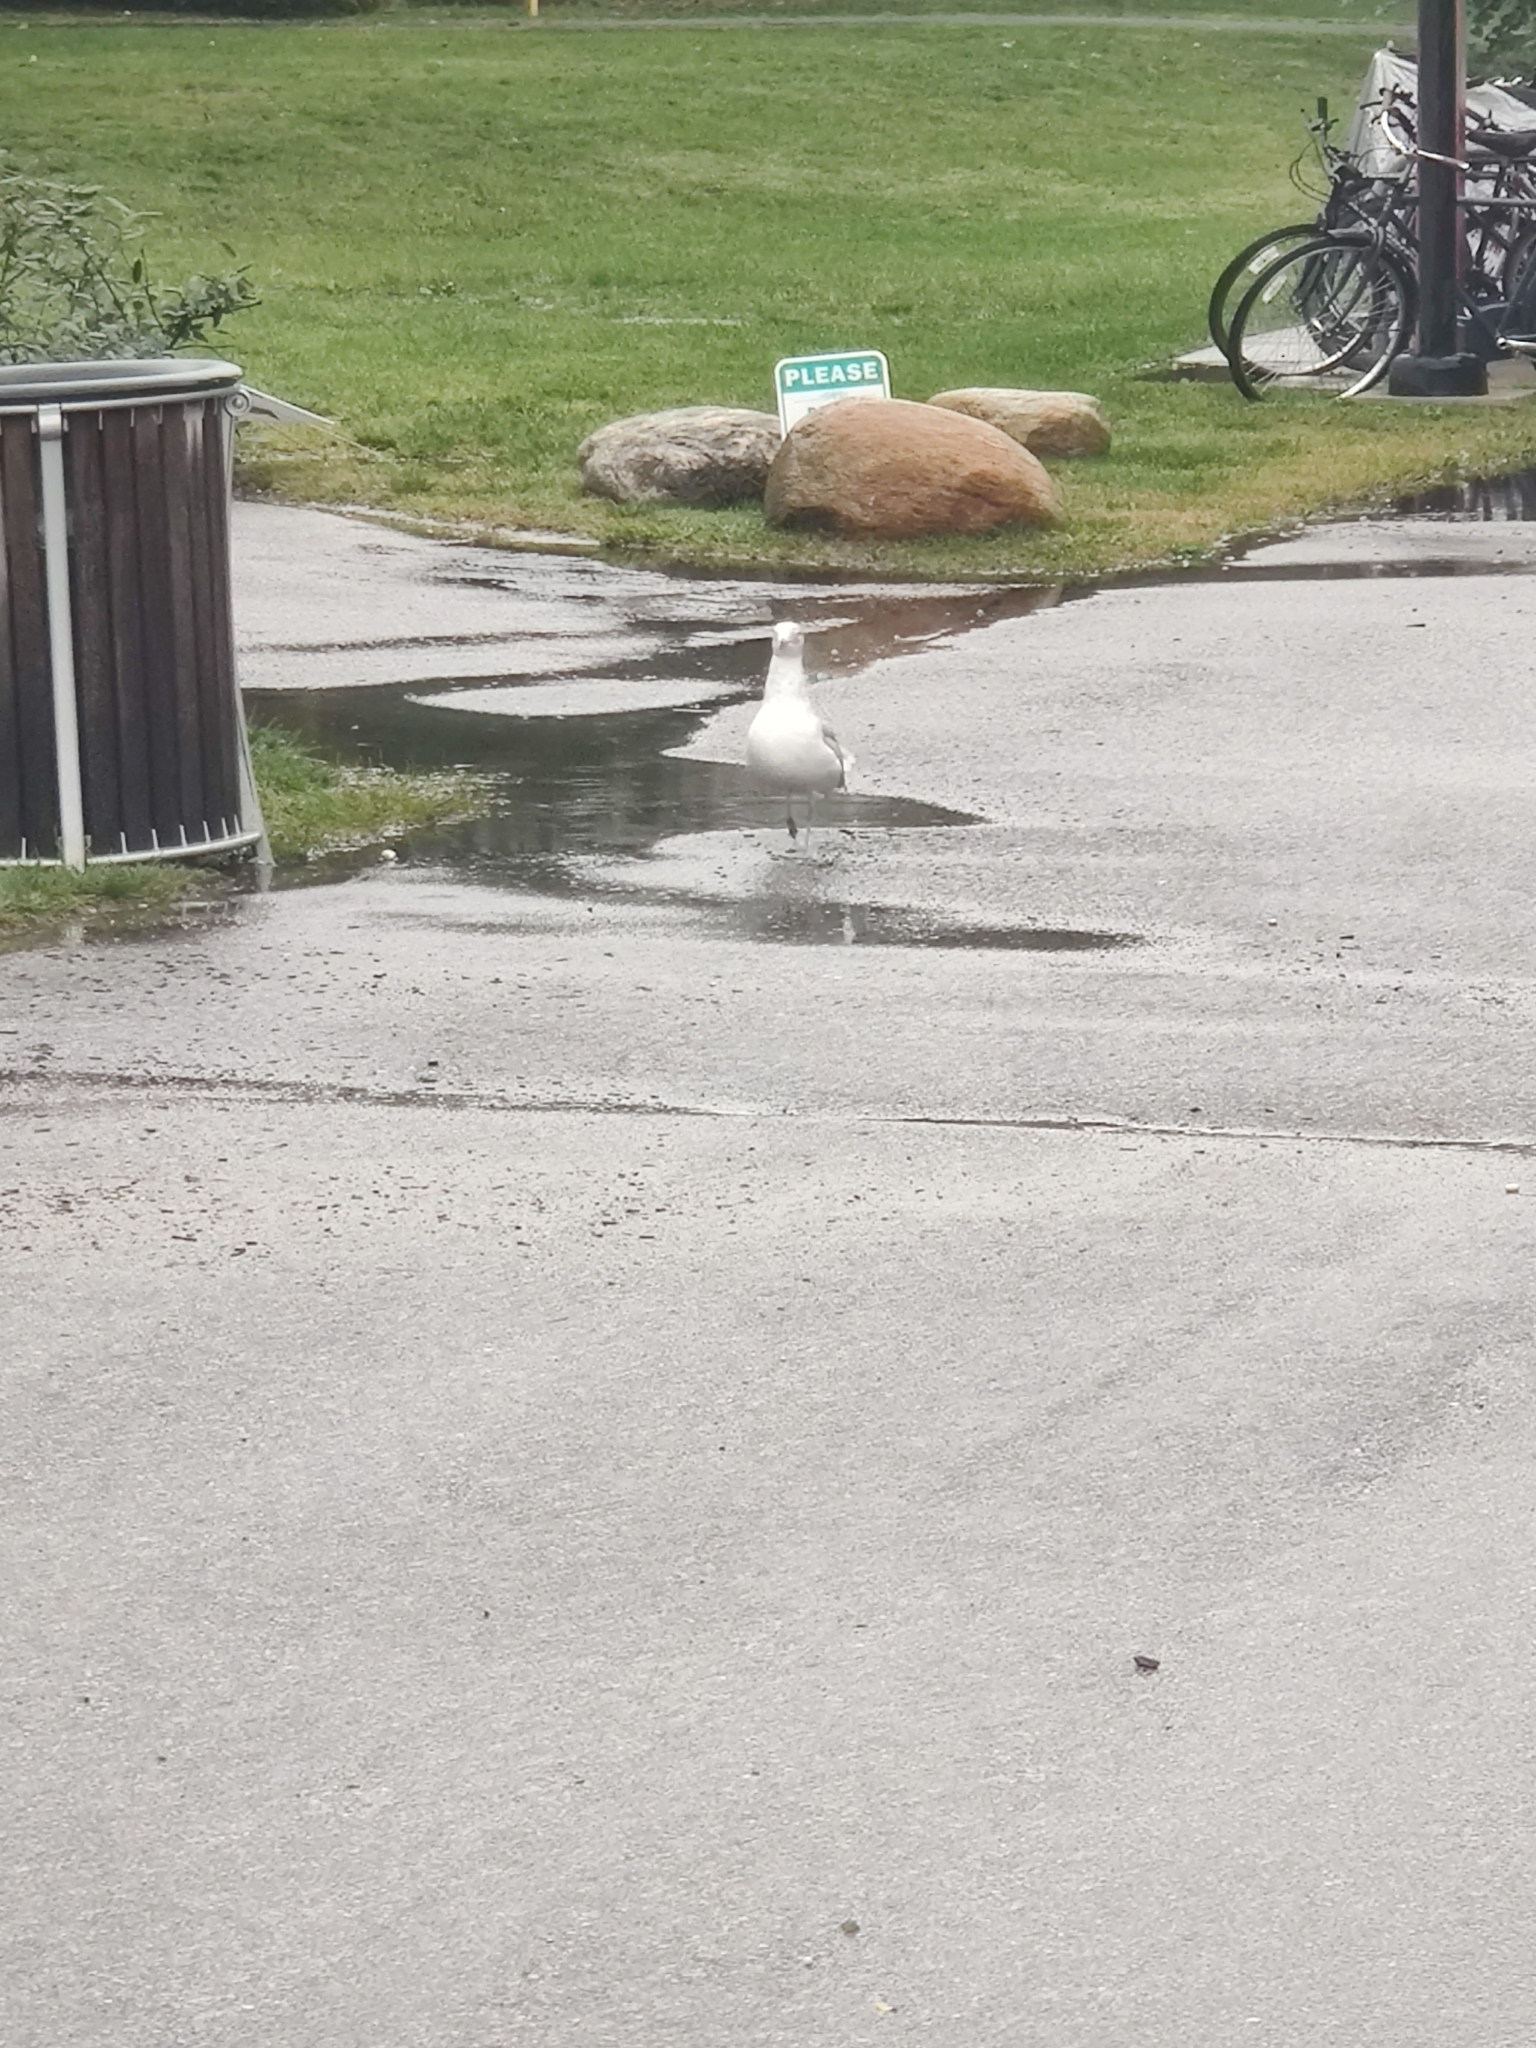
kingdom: Animalia
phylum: Chordata
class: Aves
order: Charadriiformes
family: Laridae
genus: Larus
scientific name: Larus argentatus
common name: Herring gull
